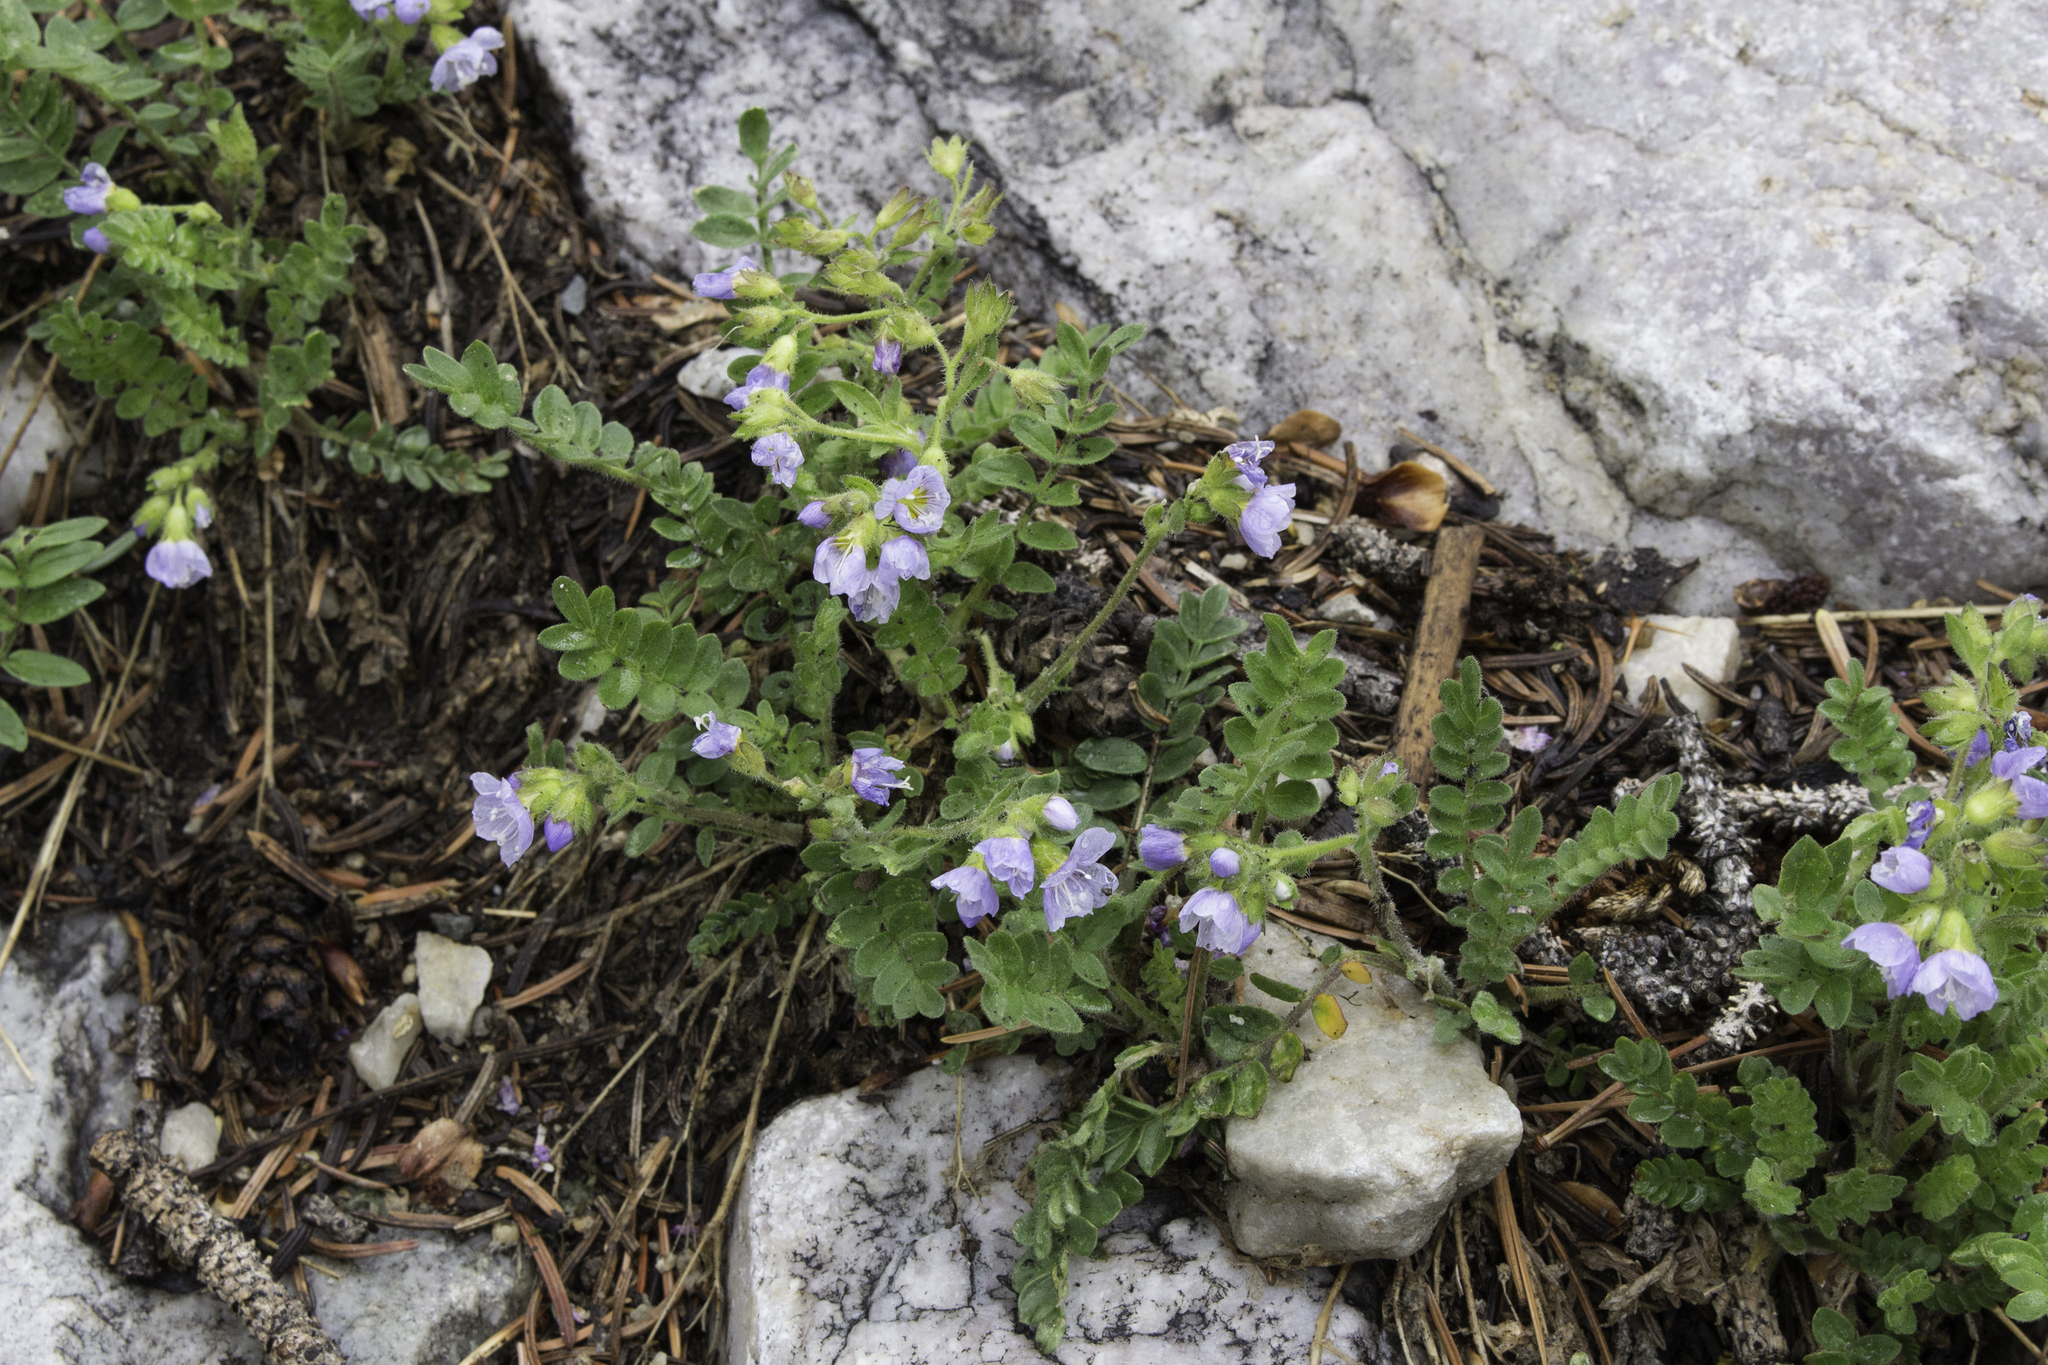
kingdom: Plantae
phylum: Tracheophyta
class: Magnoliopsida
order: Ericales
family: Polemoniaceae
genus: Polemonium
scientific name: Polemonium pulcherrimum
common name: Short jacob's-ladder
